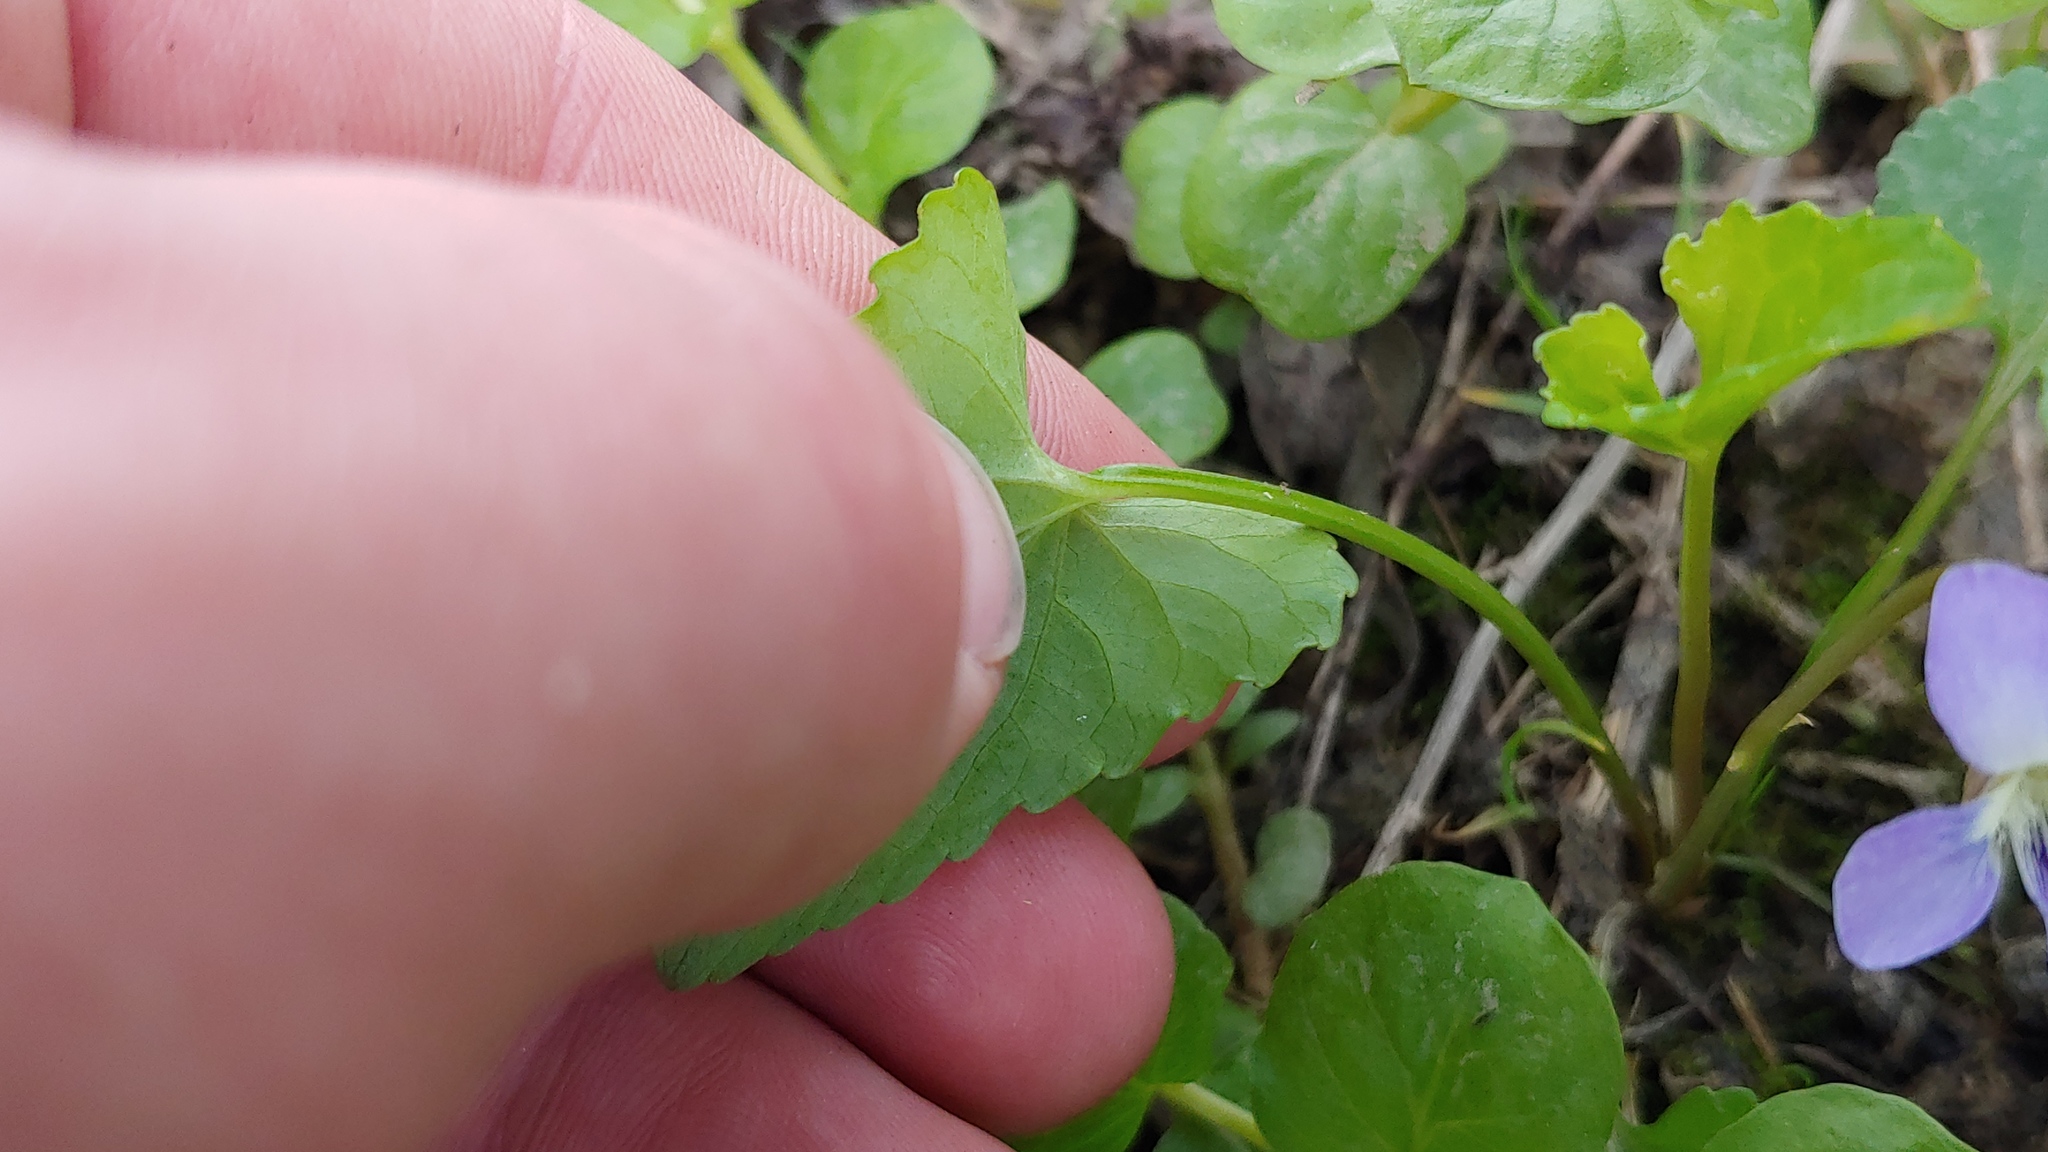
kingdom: Plantae
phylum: Tracheophyta
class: Magnoliopsida
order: Malpighiales
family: Violaceae
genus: Viola
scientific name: Viola nephrophylla
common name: Blue meadow violet
